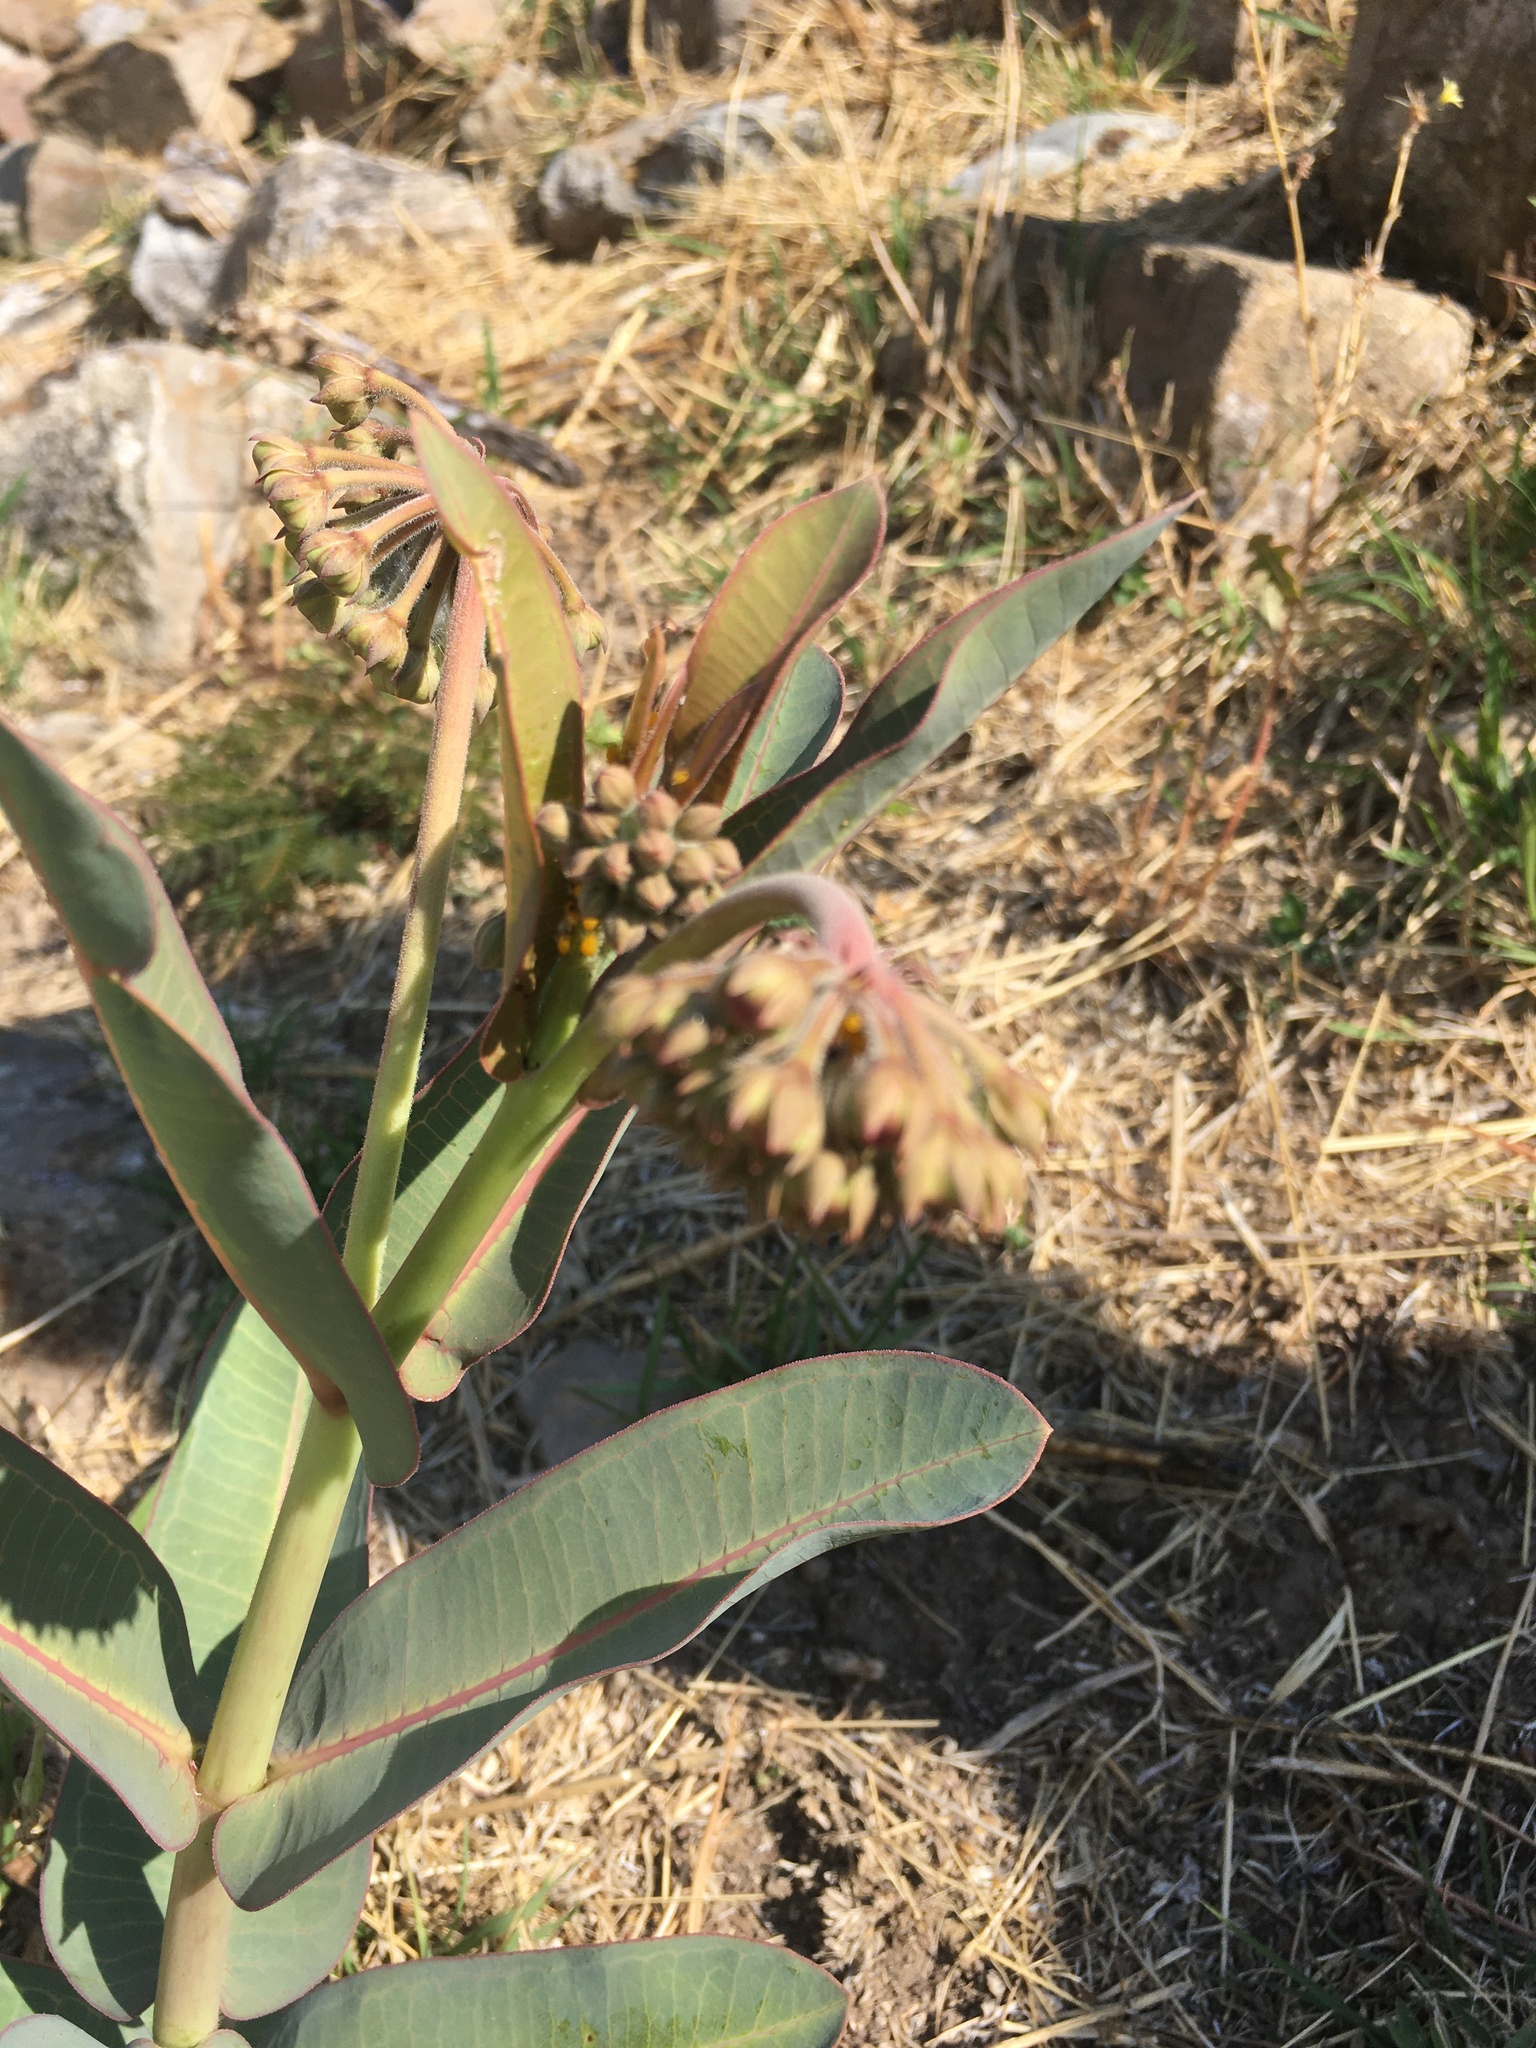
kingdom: Plantae
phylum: Tracheophyta
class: Magnoliopsida
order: Gentianales
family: Apocynaceae
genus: Asclepias
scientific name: Asclepias glaucescens
